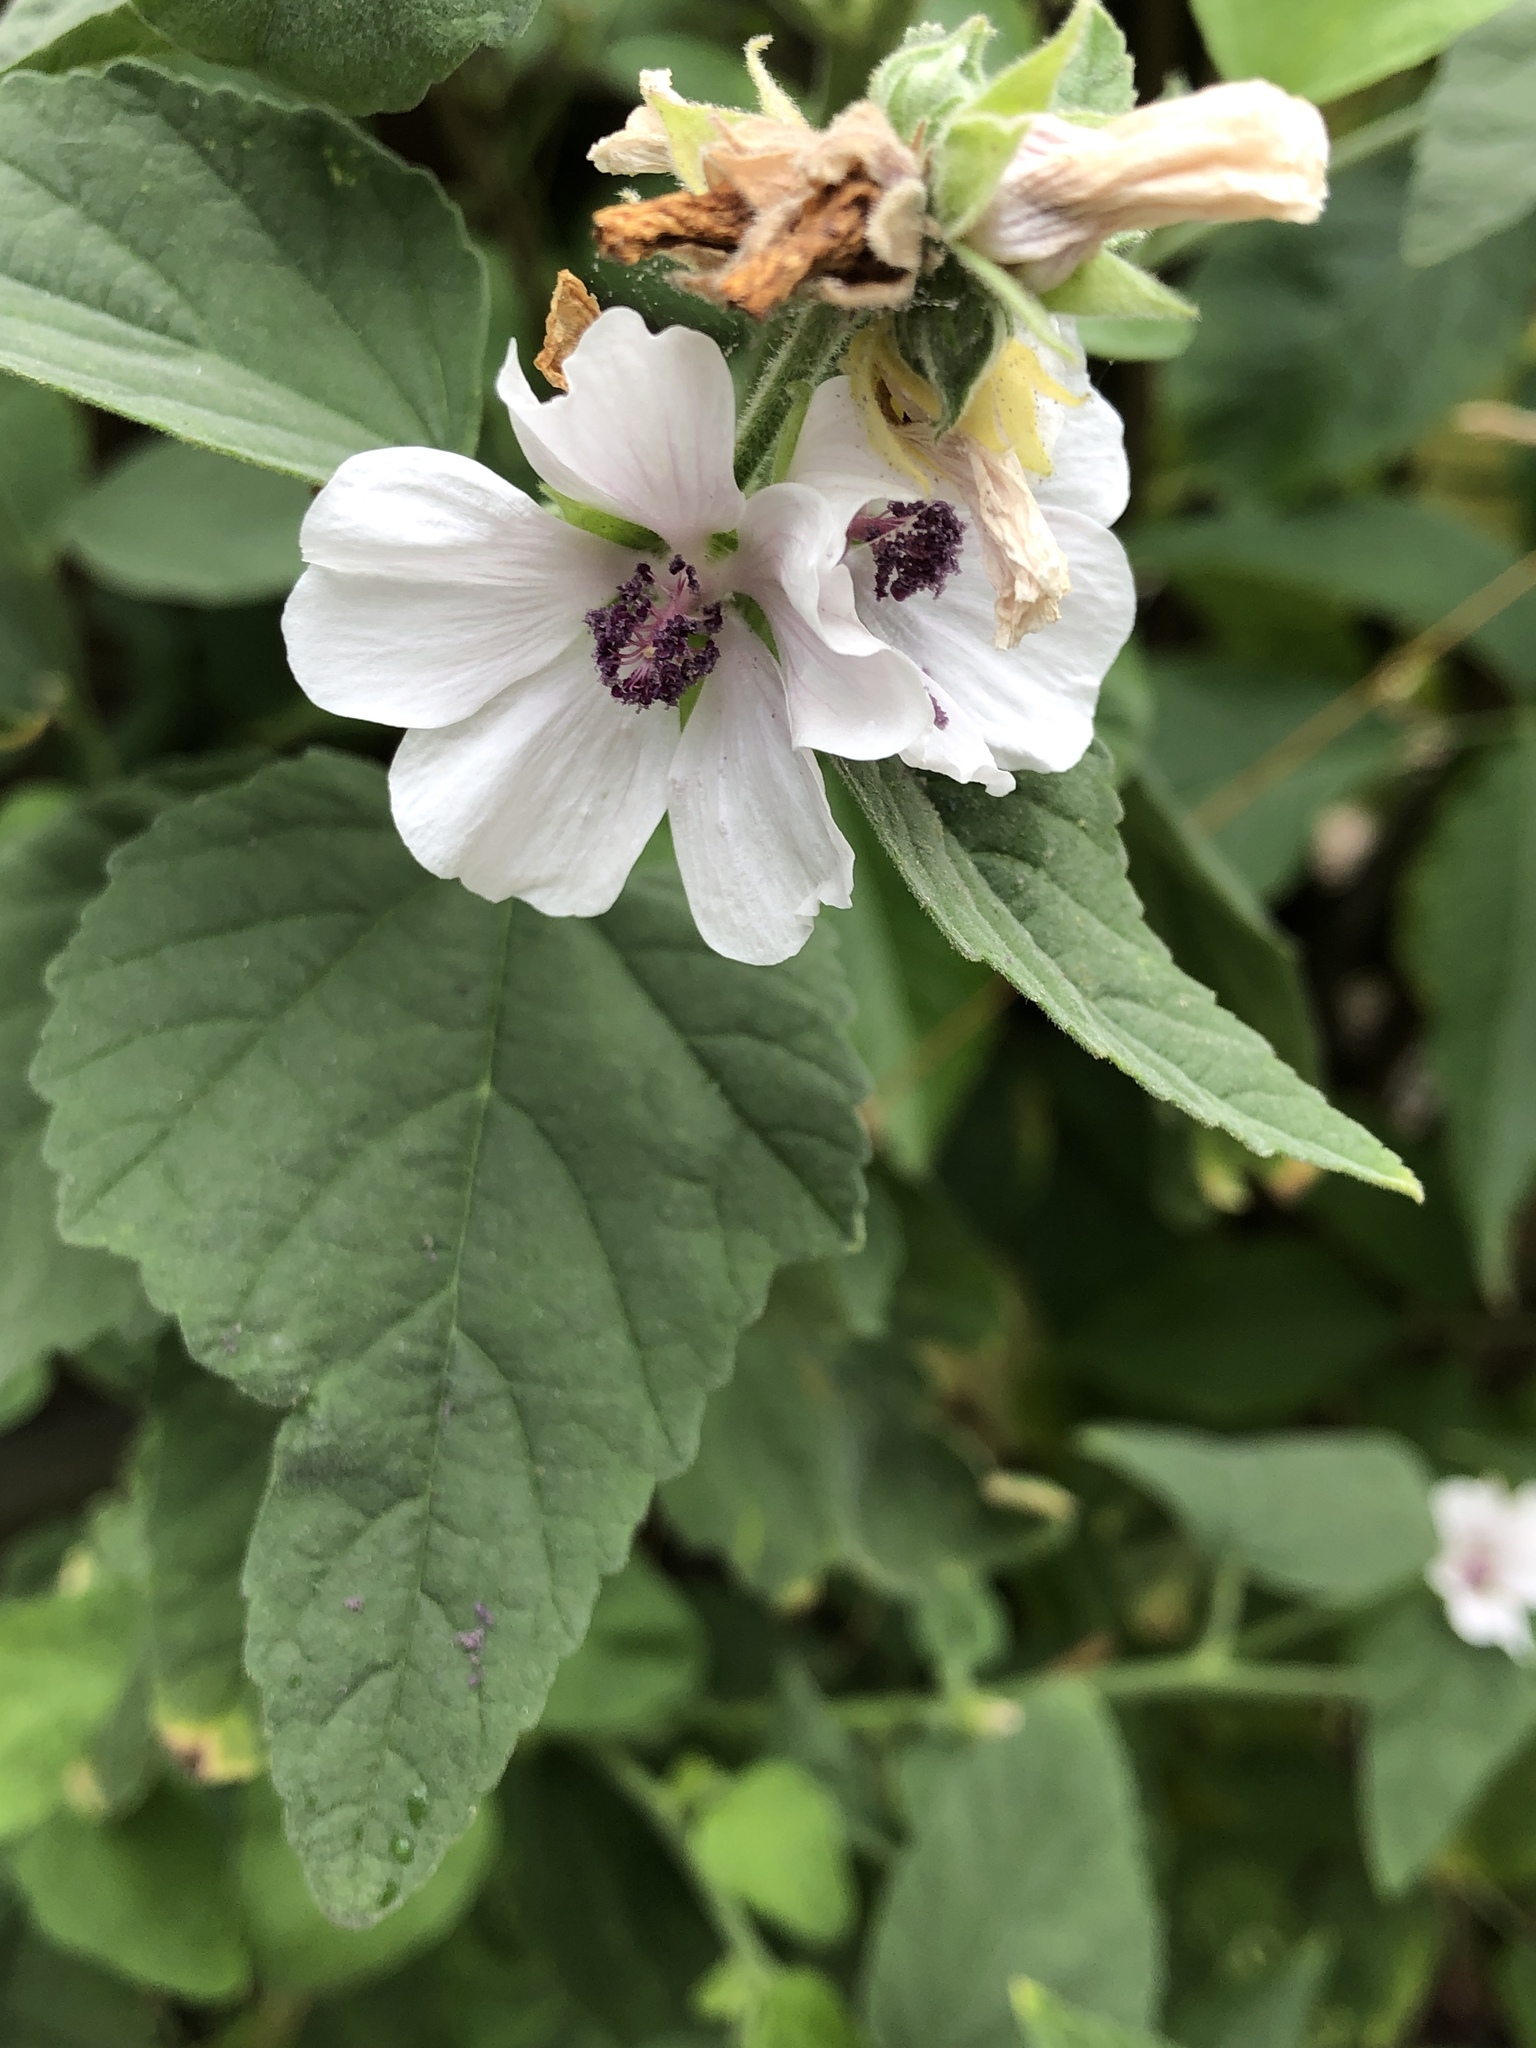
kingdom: Plantae
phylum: Tracheophyta
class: Magnoliopsida
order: Malvales
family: Malvaceae
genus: Althaea
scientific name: Althaea officinalis
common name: Marsh-mallow
